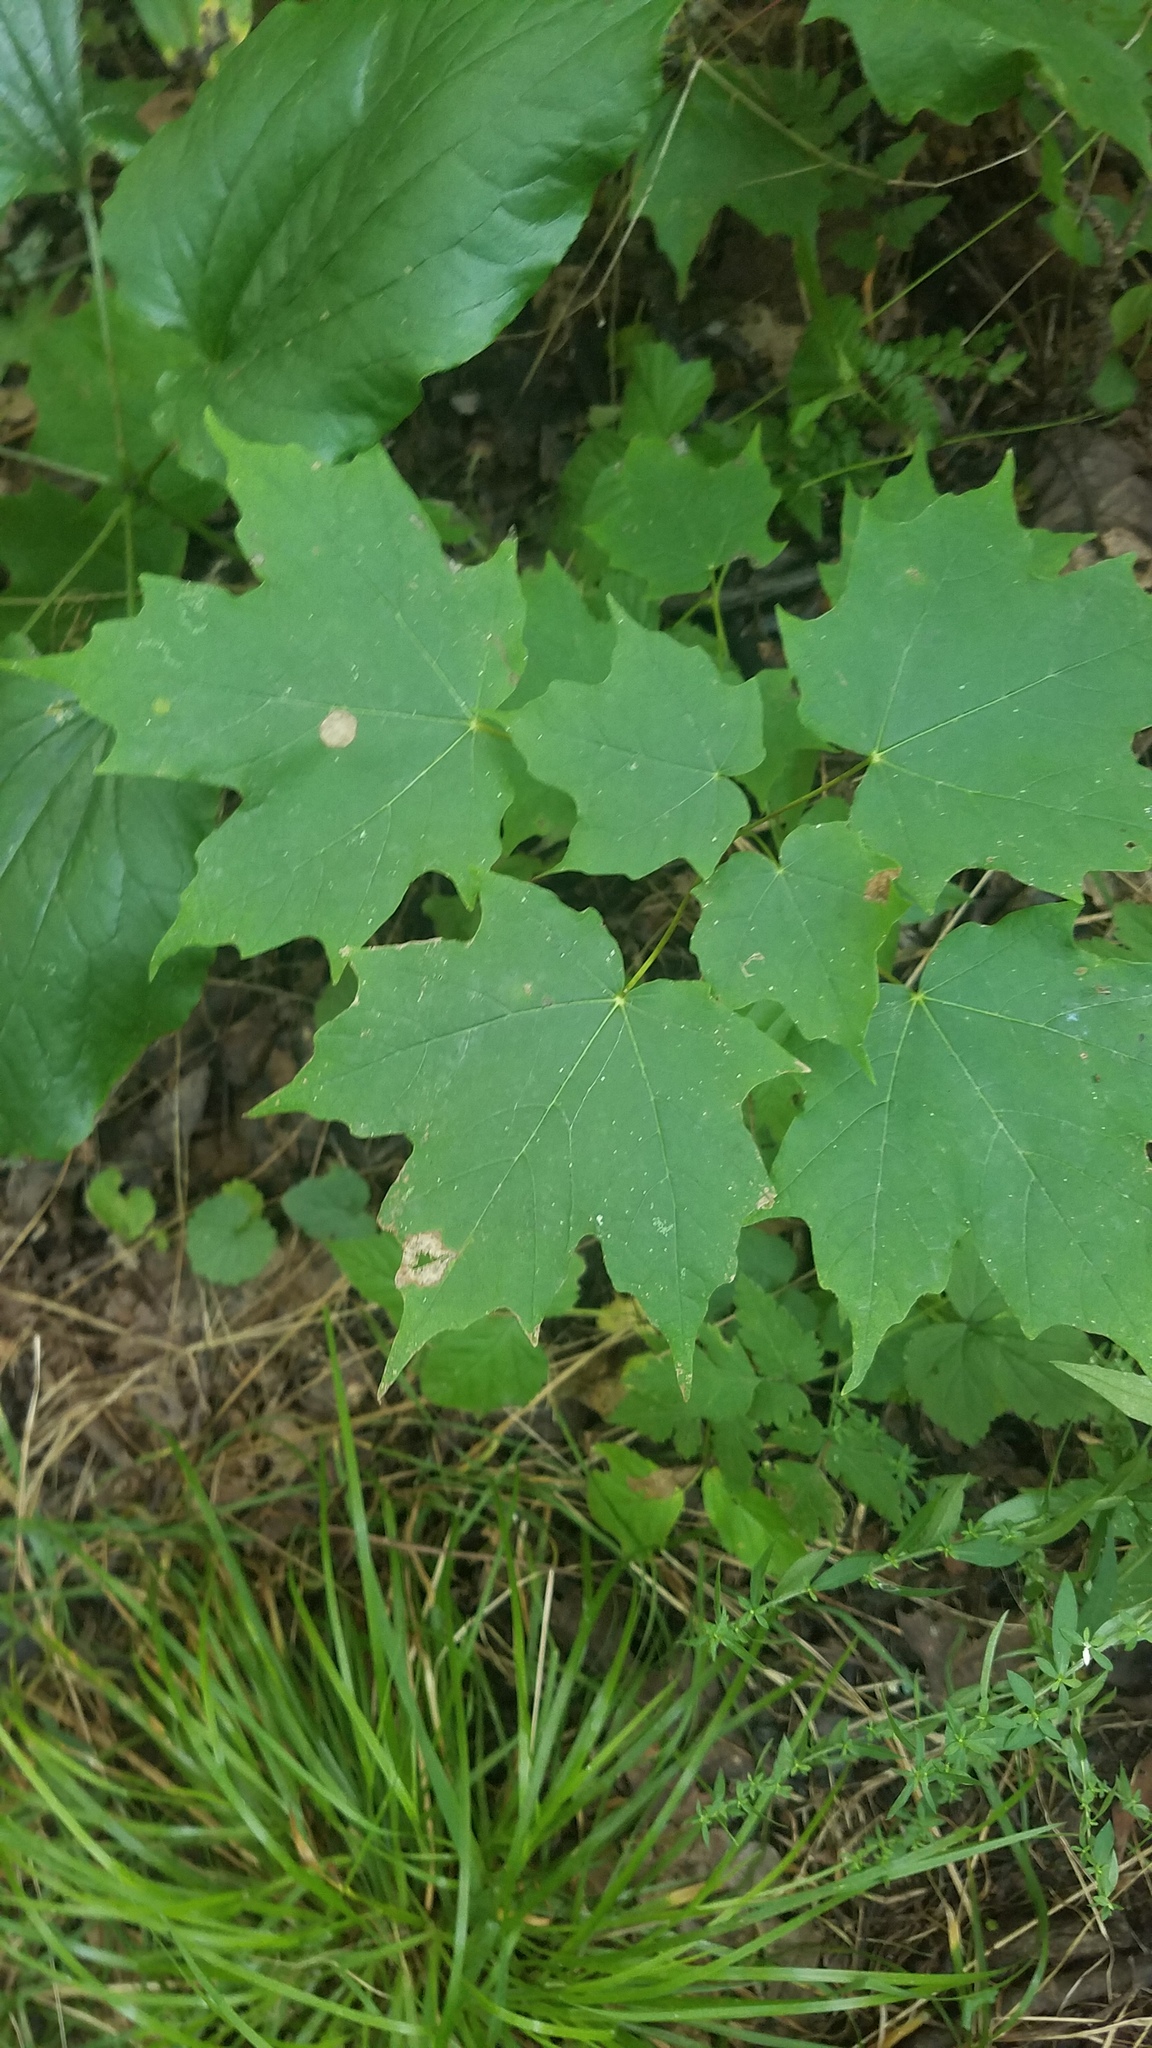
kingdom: Animalia
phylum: Arthropoda
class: Insecta
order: Diptera
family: Cecidomyiidae
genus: Acericecis
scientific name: Acericecis ocellaris
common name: Ocellate gall midge
